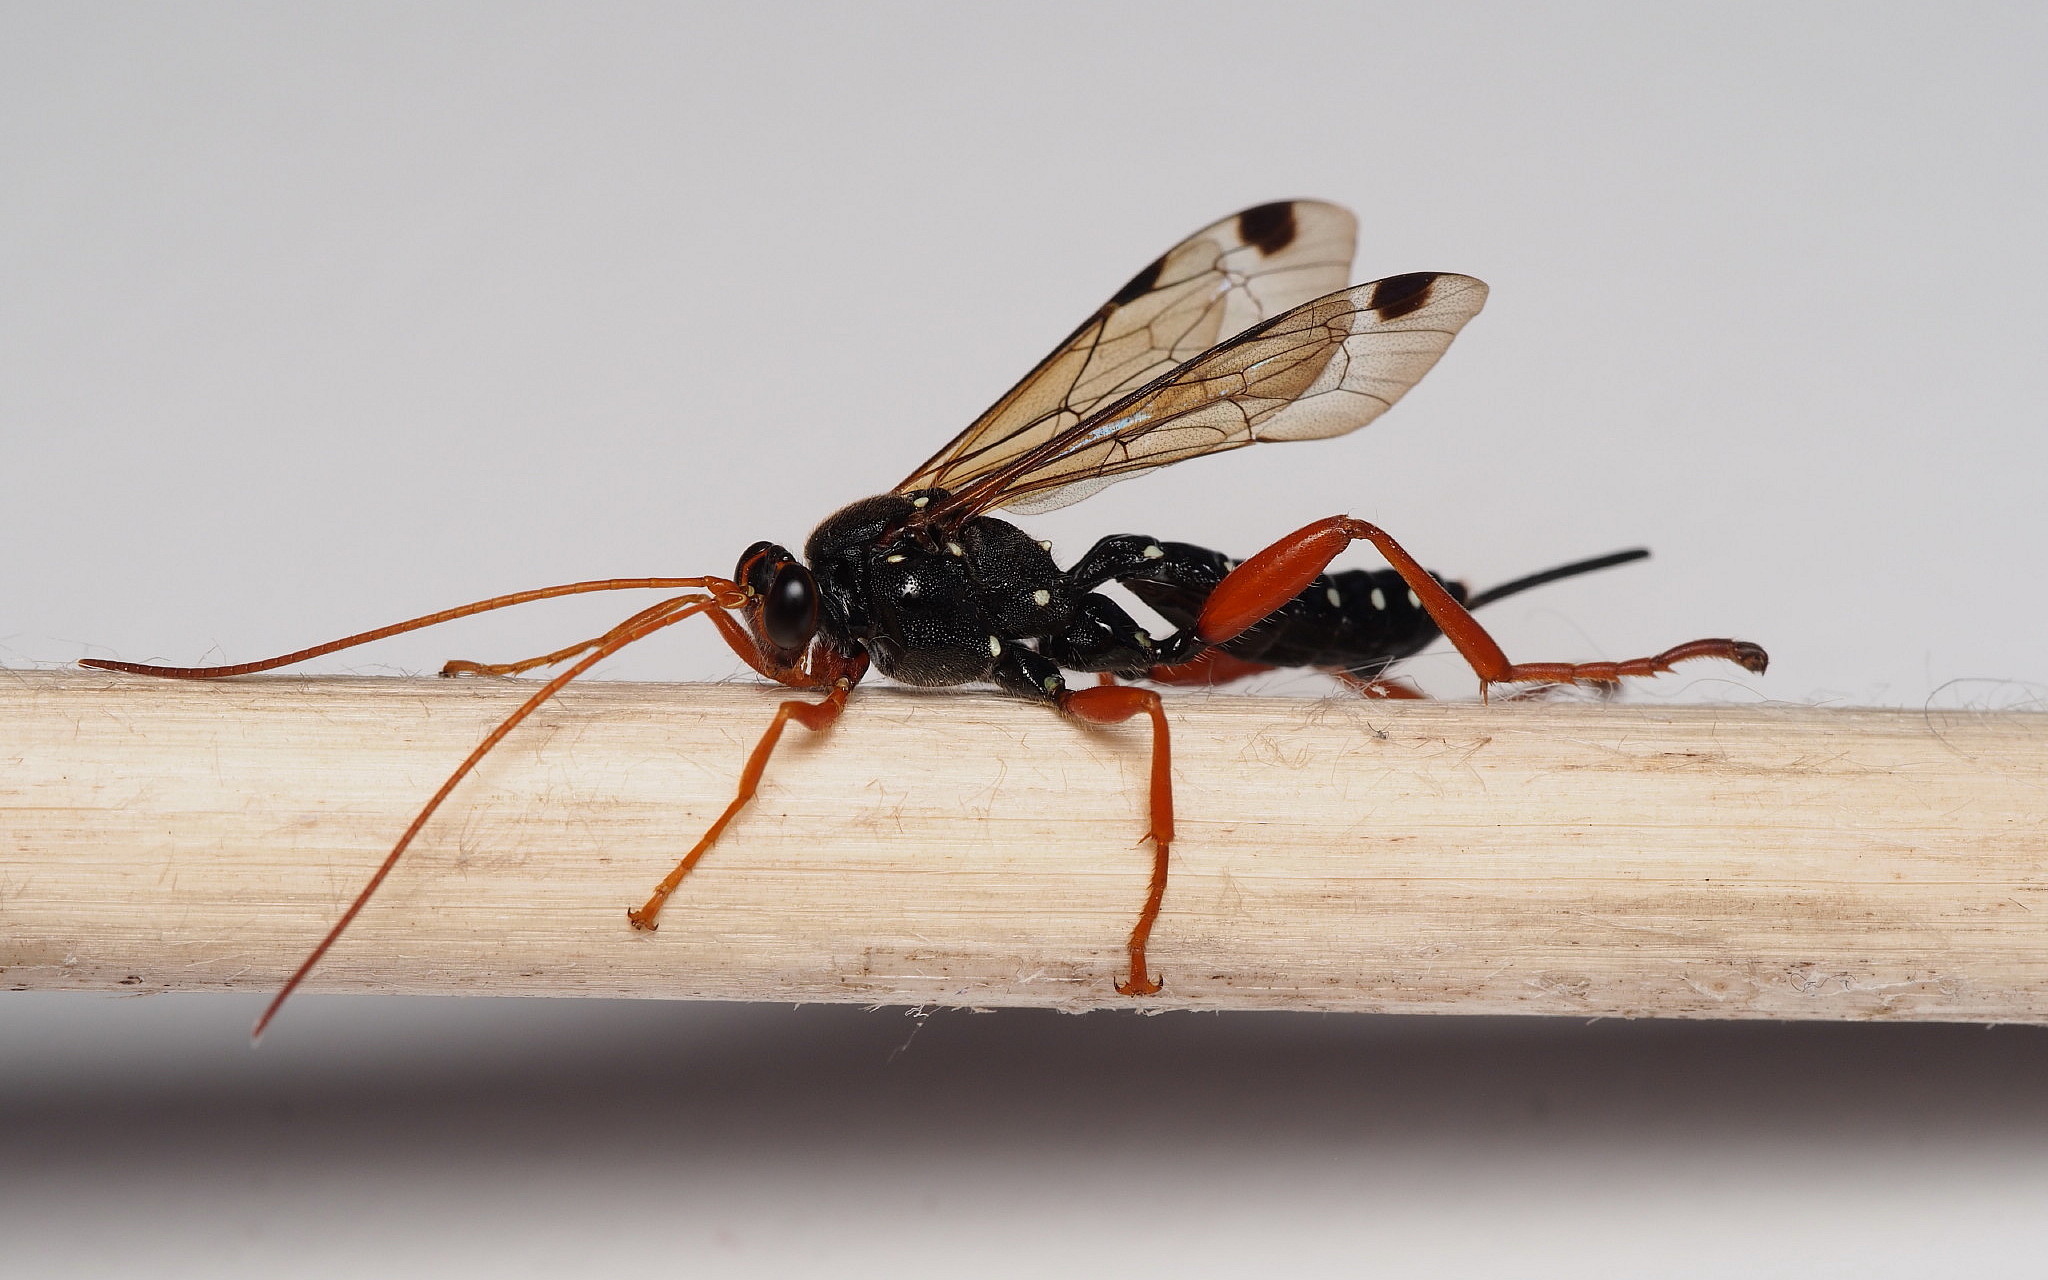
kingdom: Animalia
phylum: Arthropoda
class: Insecta
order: Hymenoptera
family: Ichneumonidae
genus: Echthromorpha
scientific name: Echthromorpha intricatoria
